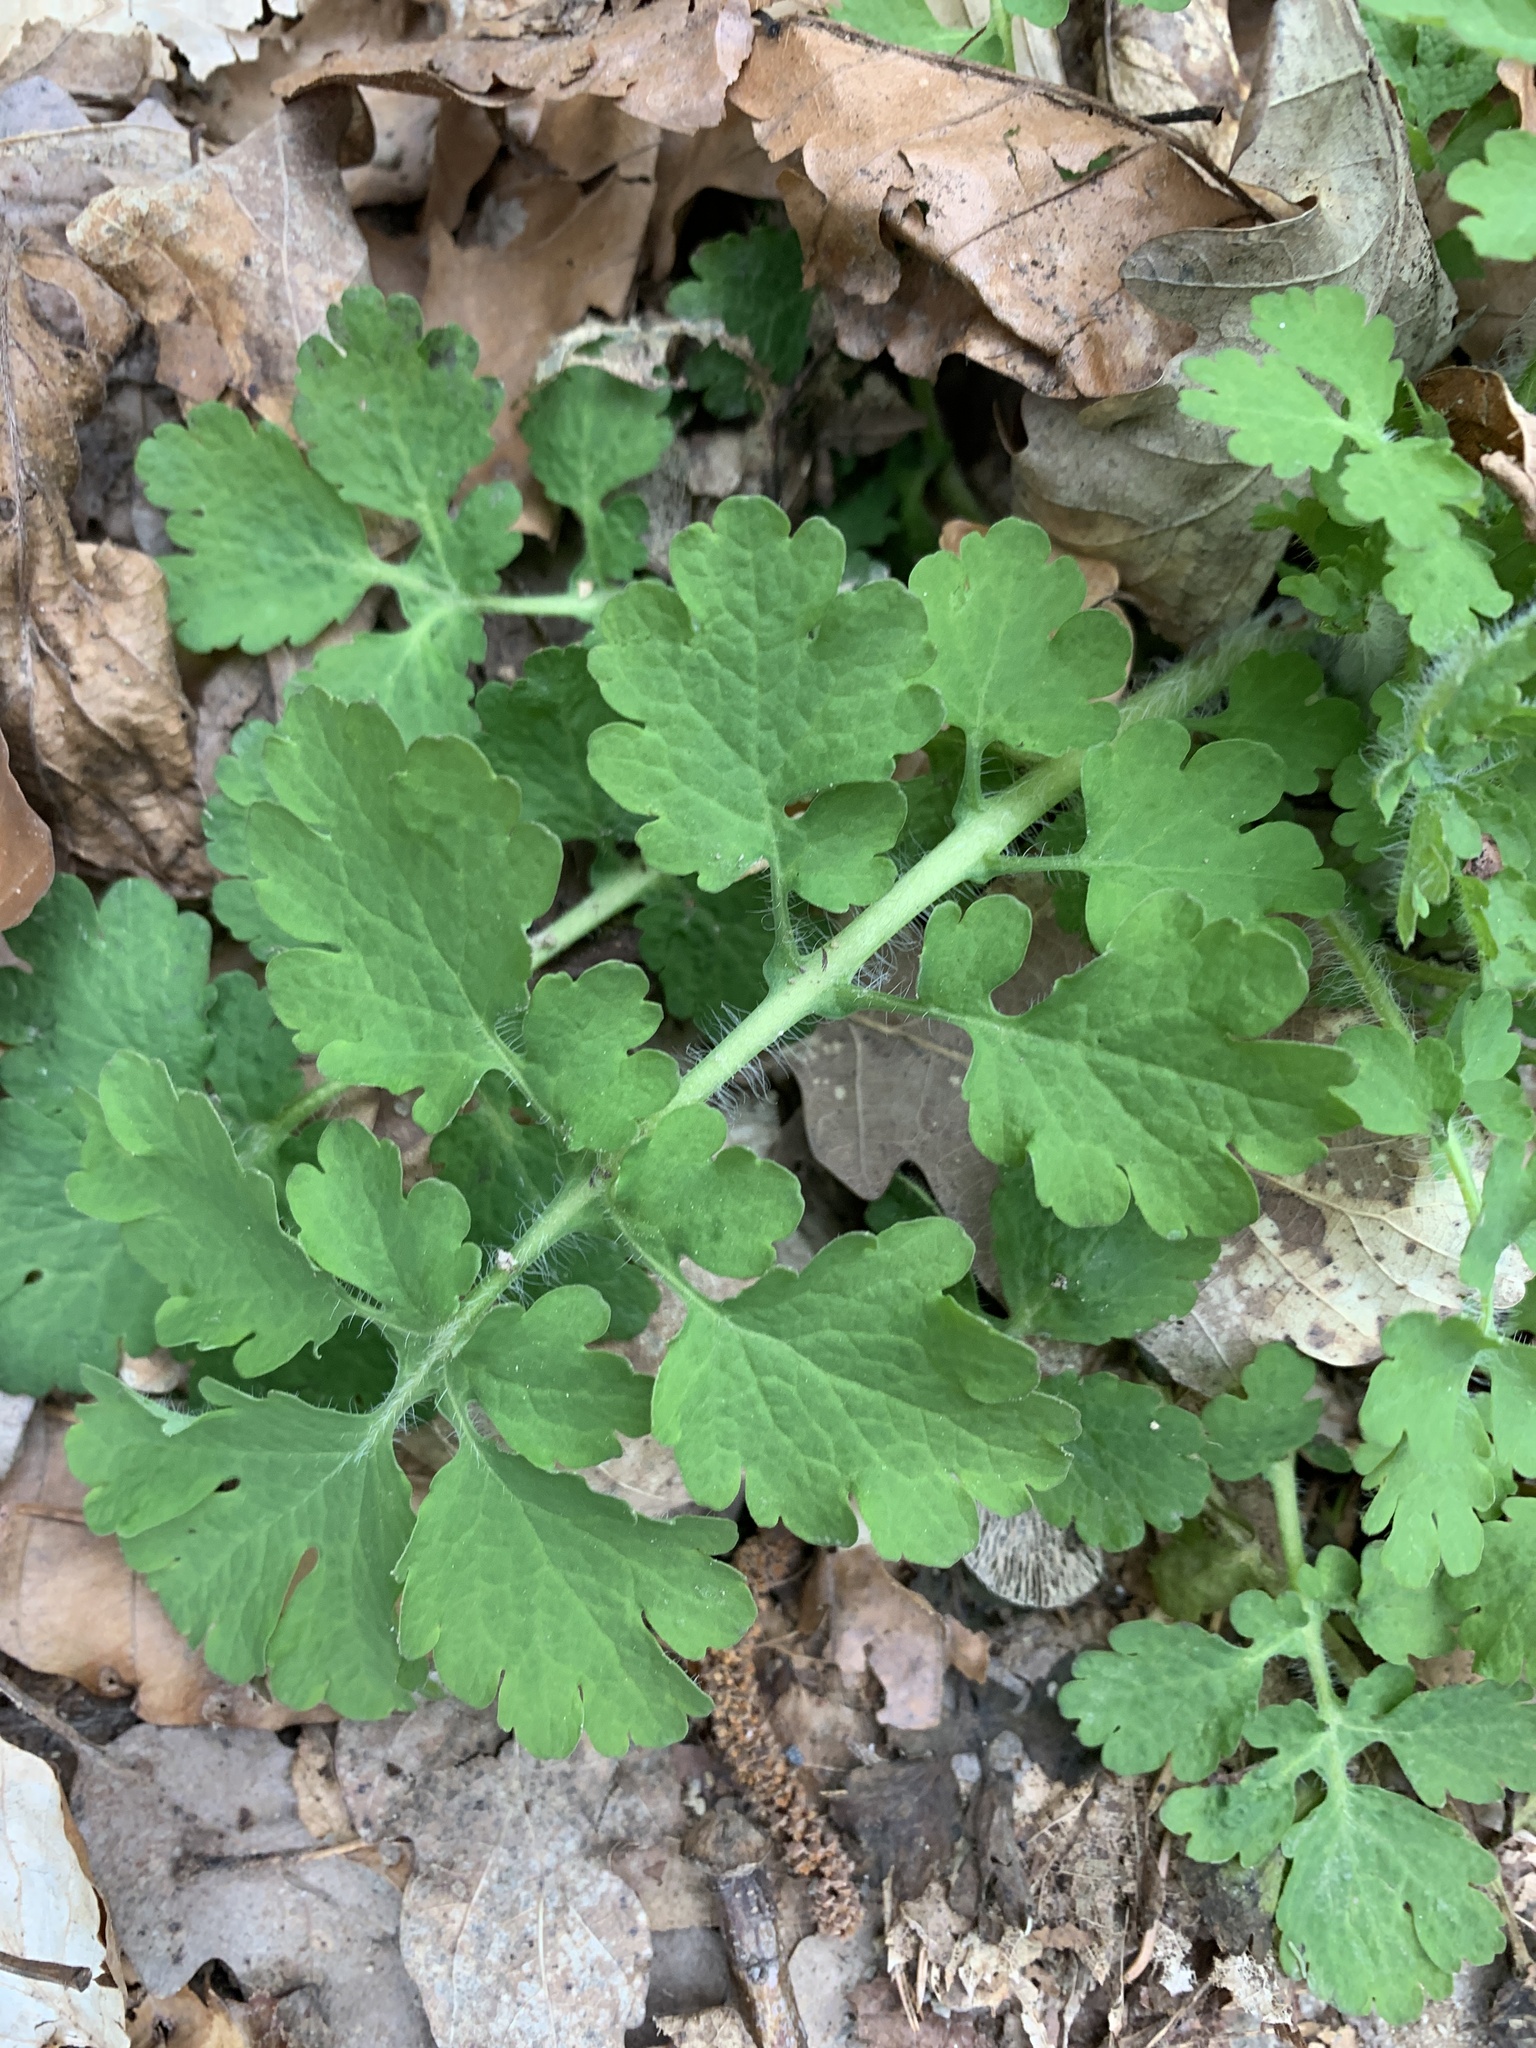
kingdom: Plantae
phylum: Tracheophyta
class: Magnoliopsida
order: Ranunculales
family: Papaveraceae
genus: Chelidonium
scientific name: Chelidonium majus
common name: Greater celandine
